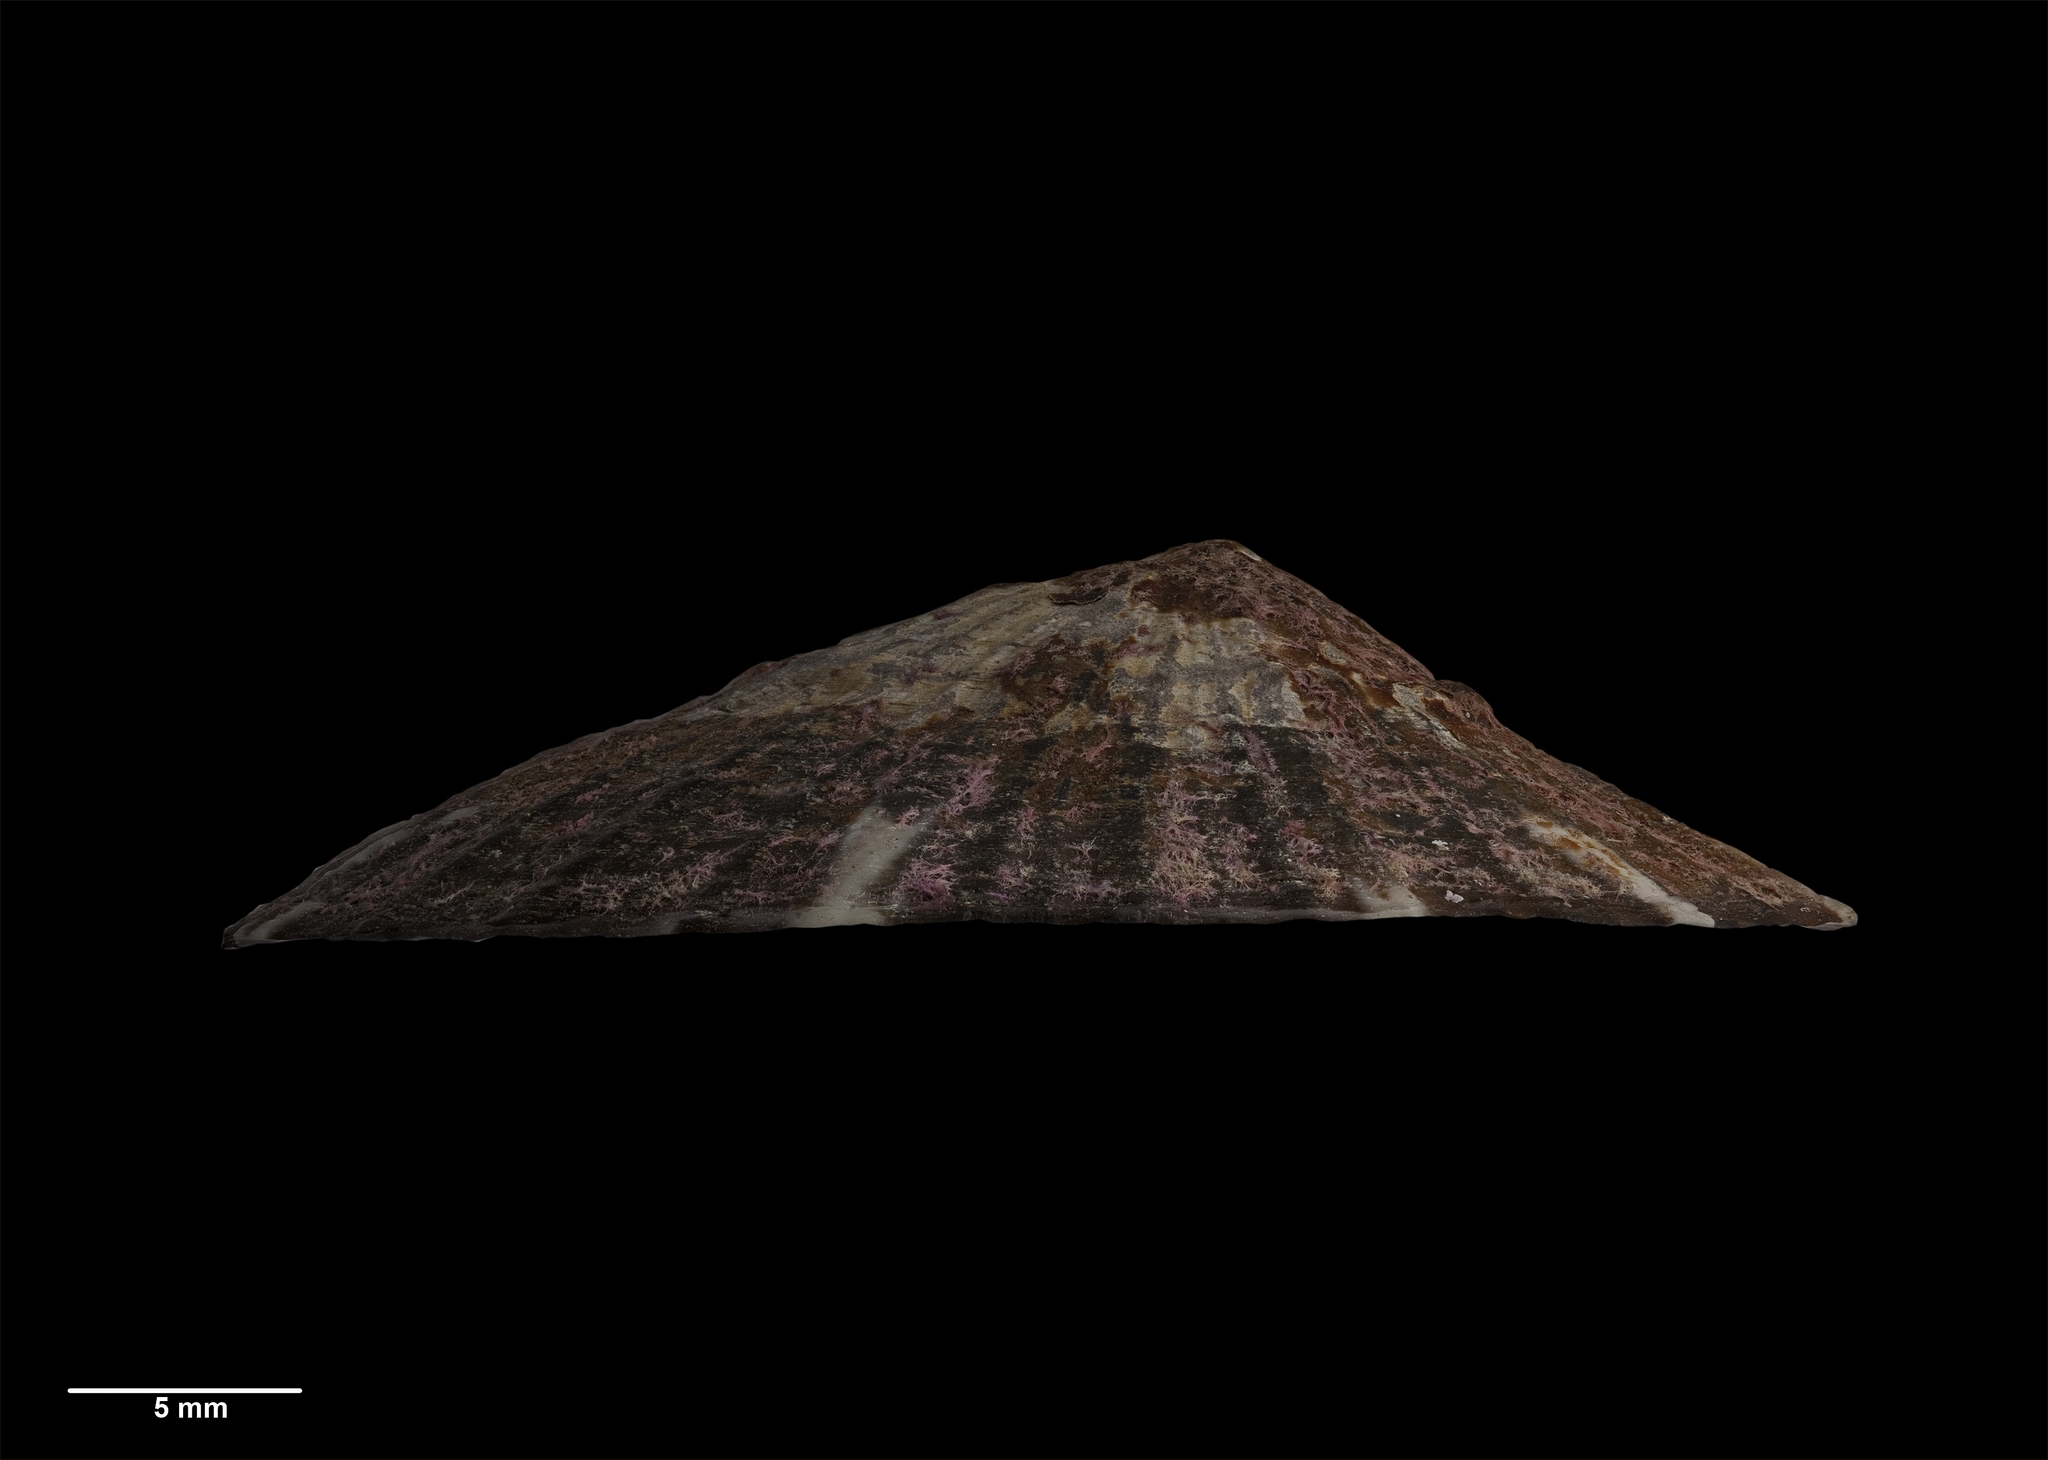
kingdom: Animalia
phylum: Mollusca
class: Gastropoda
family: Nacellidae
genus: Cellana
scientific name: Cellana pricei
